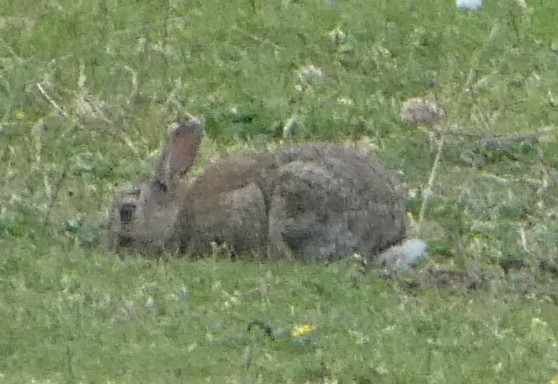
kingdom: Animalia
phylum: Chordata
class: Mammalia
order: Lagomorpha
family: Leporidae
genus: Oryctolagus
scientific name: Oryctolagus cuniculus
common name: European rabbit
